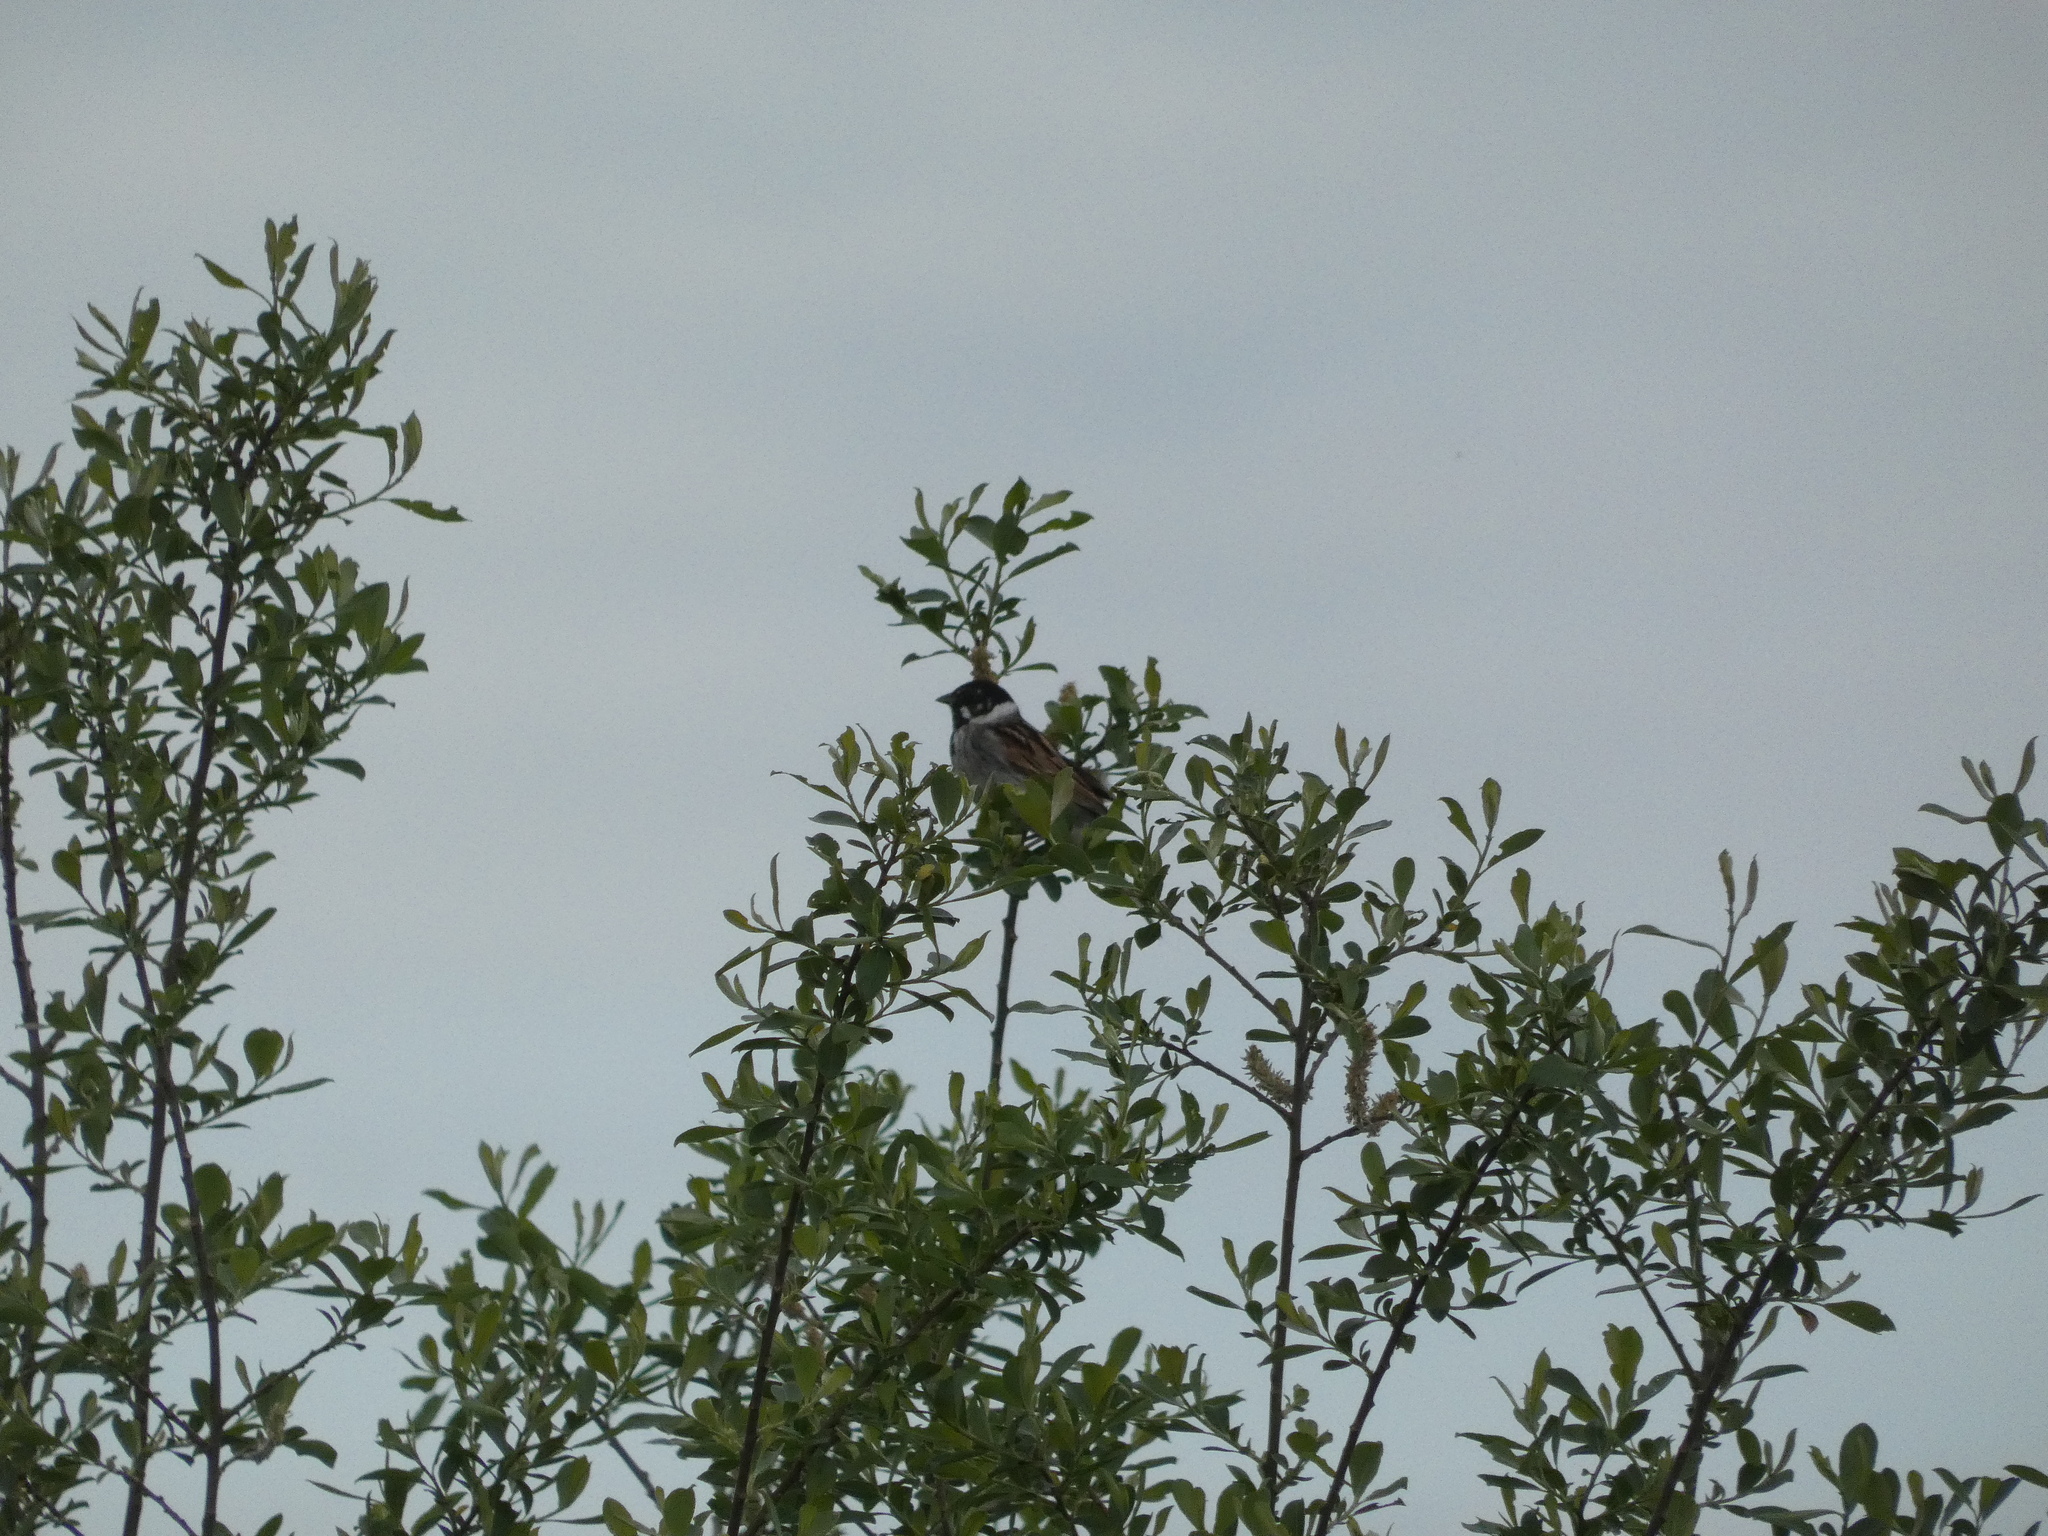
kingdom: Animalia
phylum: Chordata
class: Aves
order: Passeriformes
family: Emberizidae
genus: Emberiza
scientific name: Emberiza schoeniclus
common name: Reed bunting
